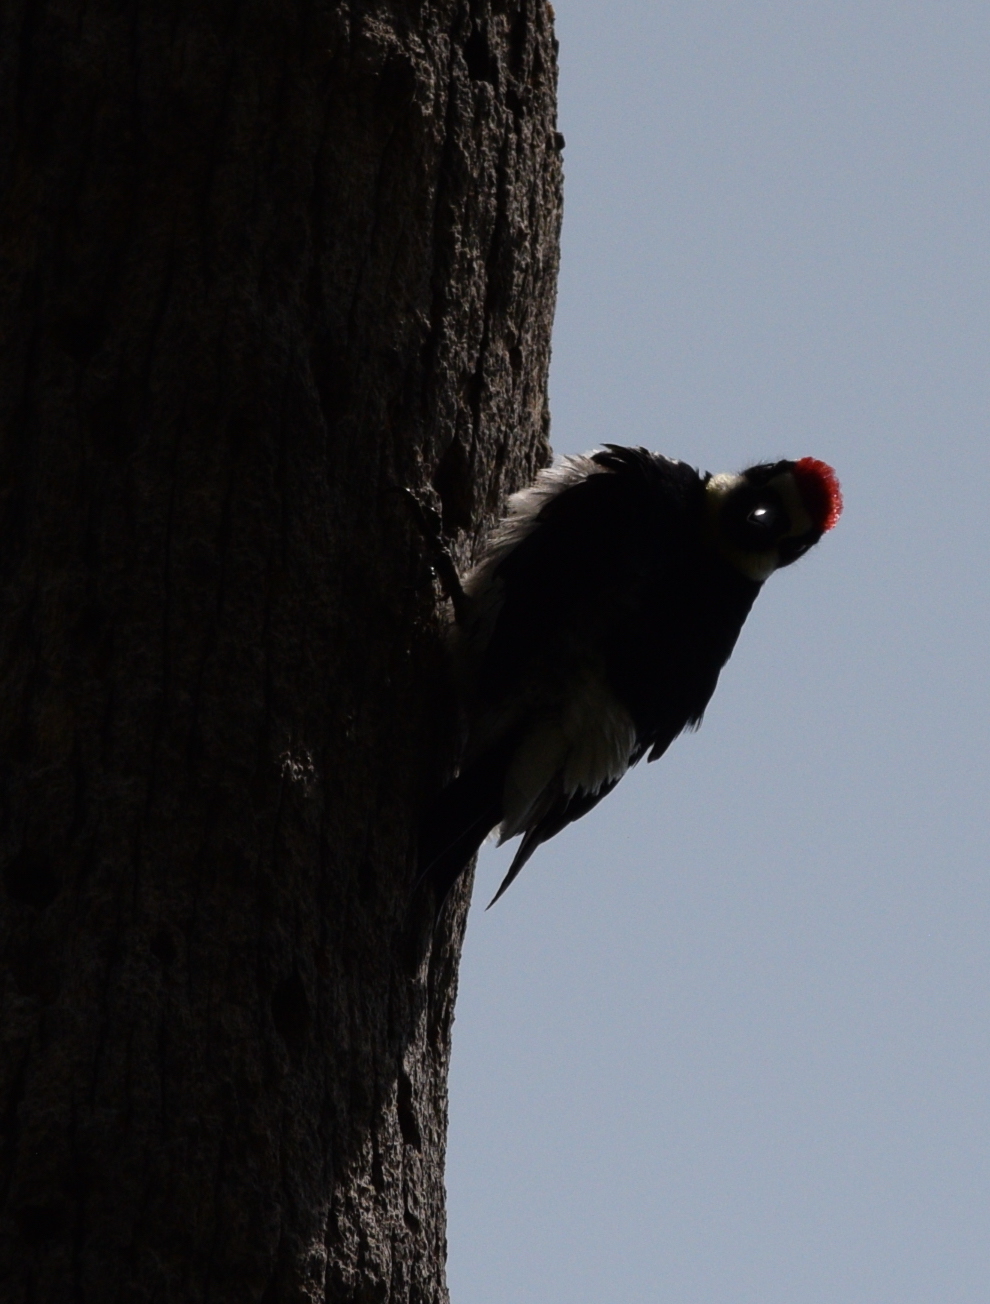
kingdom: Animalia
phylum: Chordata
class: Aves
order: Piciformes
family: Picidae
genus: Melanerpes
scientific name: Melanerpes formicivorus
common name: Acorn woodpecker
